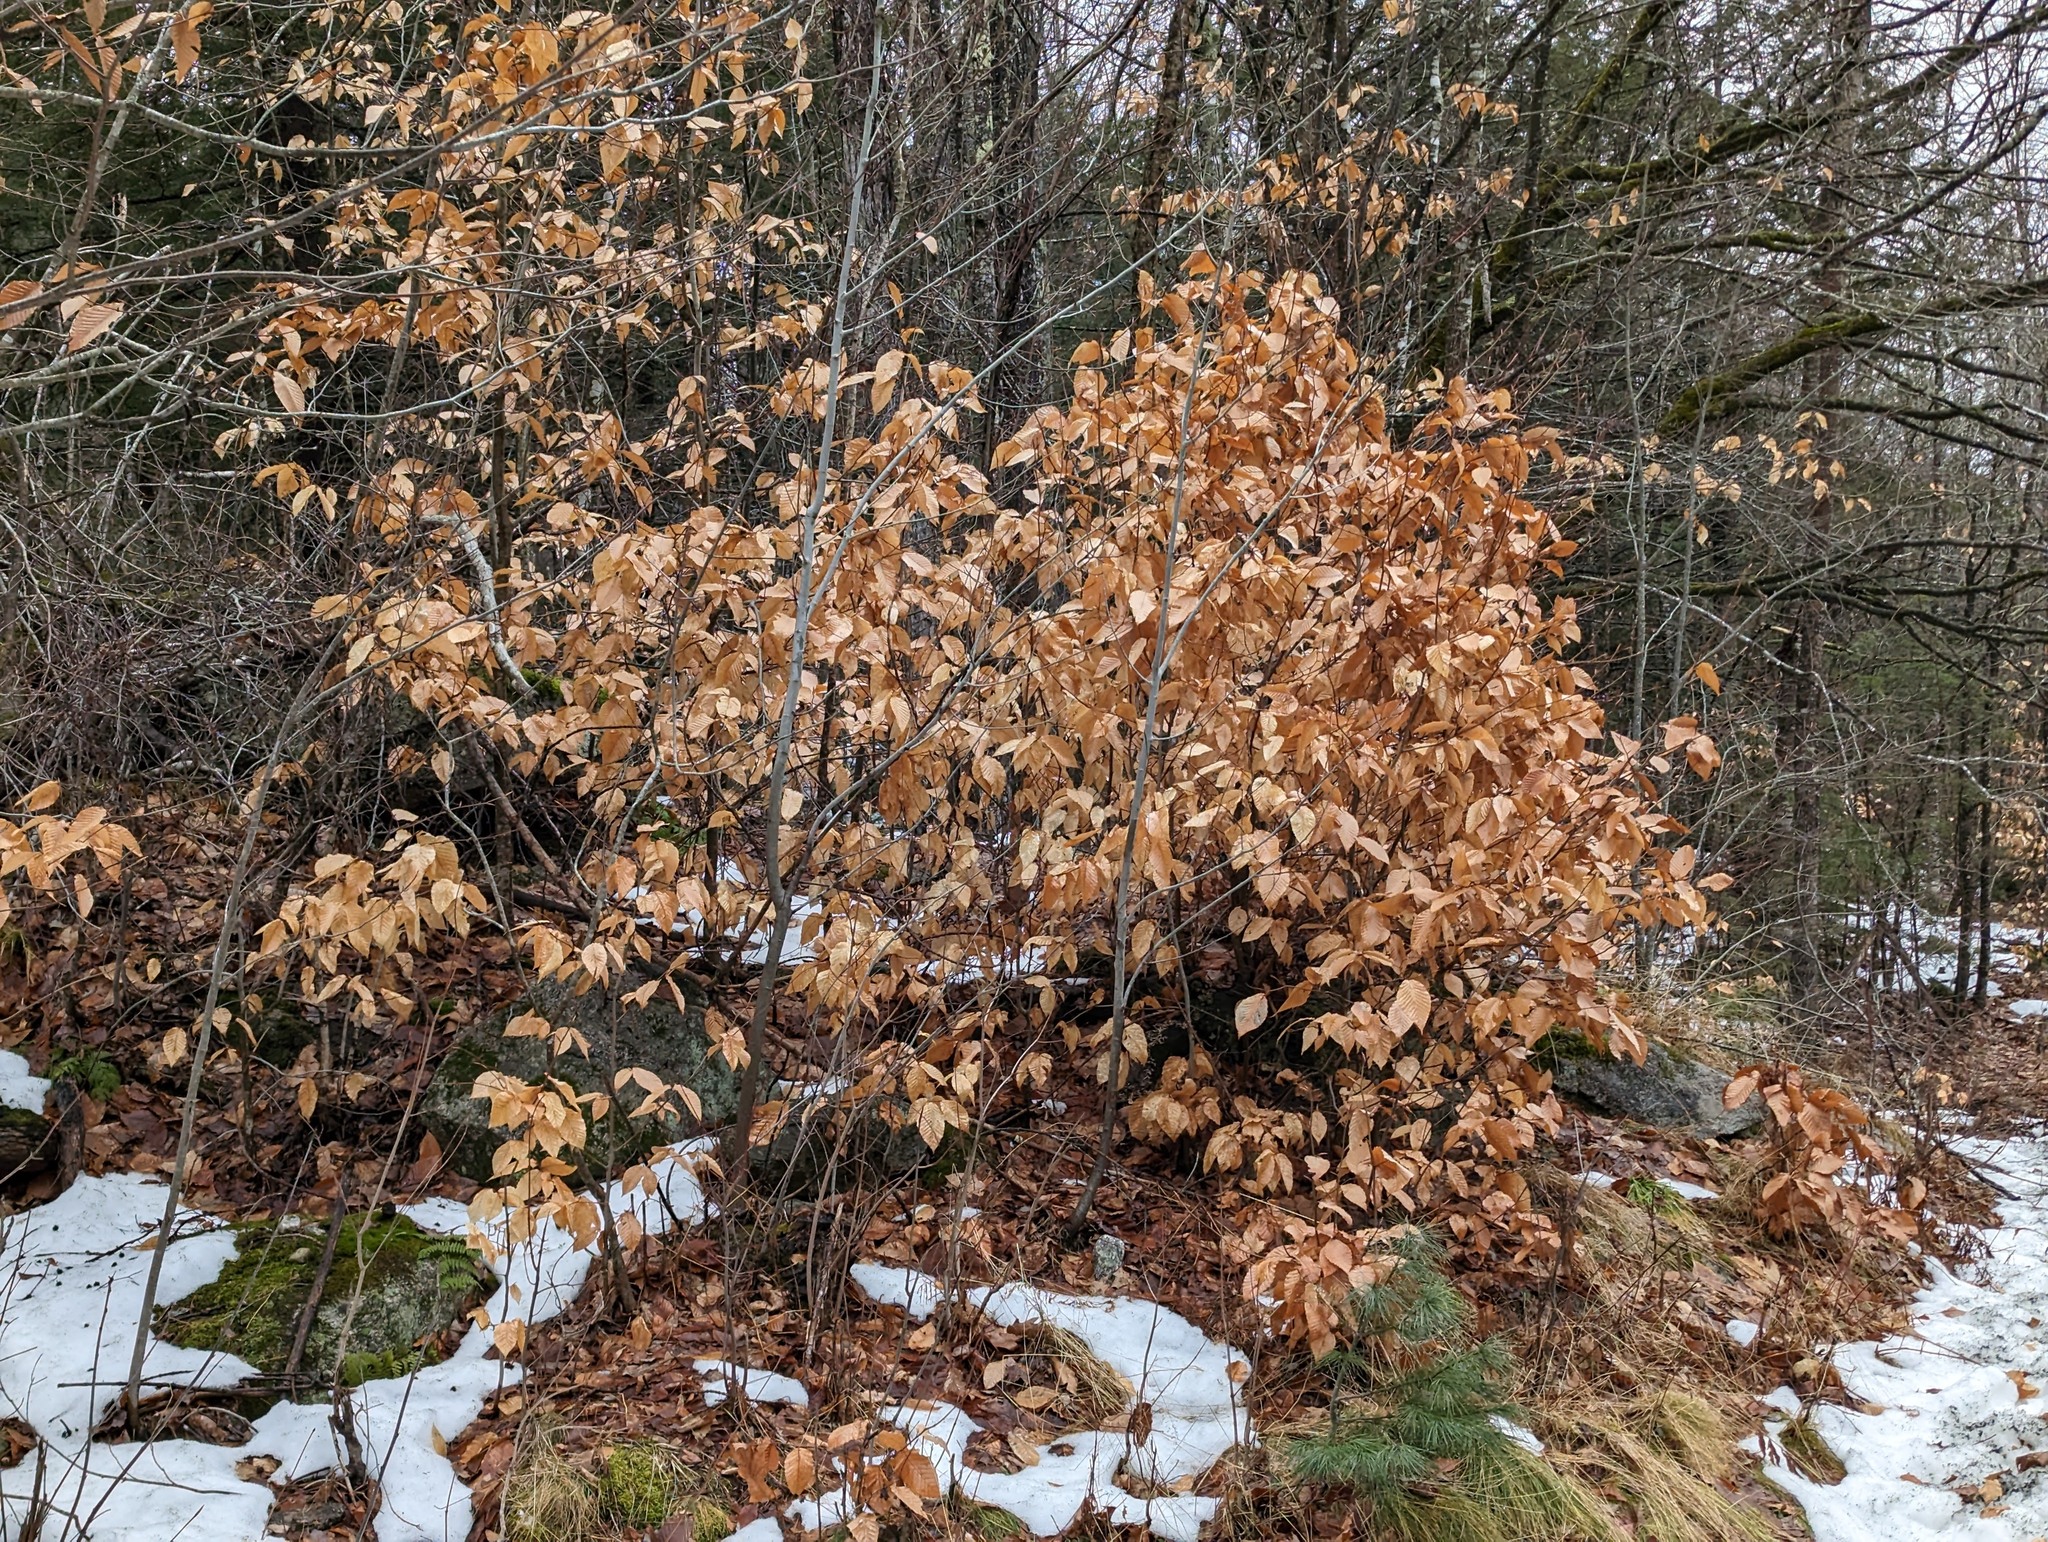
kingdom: Plantae
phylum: Tracheophyta
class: Magnoliopsida
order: Fagales
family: Fagaceae
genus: Fagus
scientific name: Fagus grandifolia
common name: American beech
